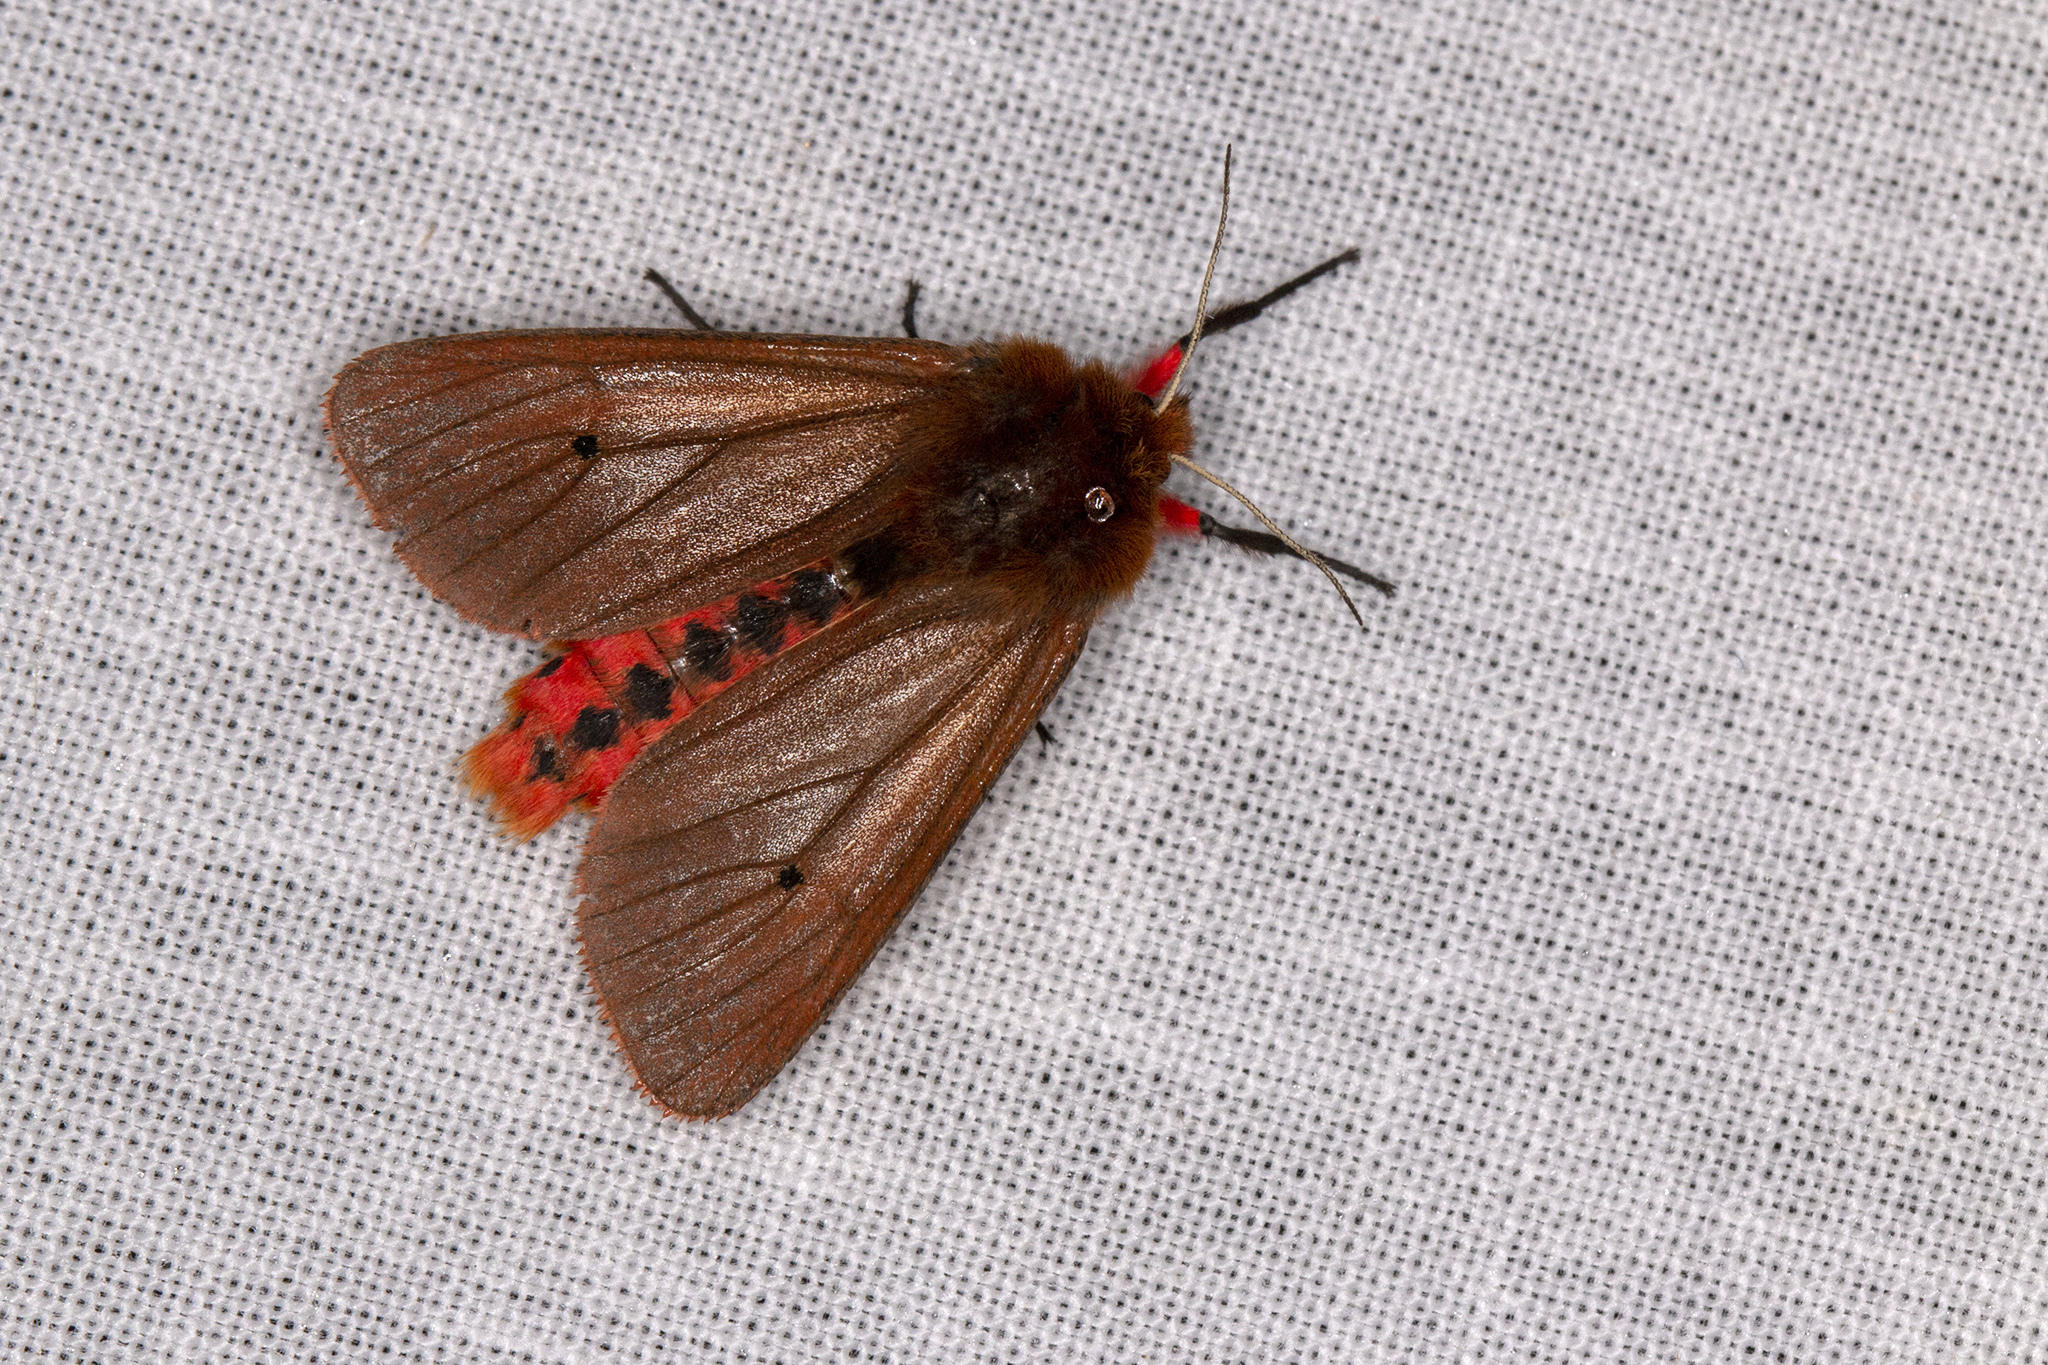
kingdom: Animalia
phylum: Arthropoda
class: Insecta
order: Lepidoptera
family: Erebidae
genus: Phragmatobia
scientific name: Phragmatobia fuliginosa
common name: Ruby tiger
